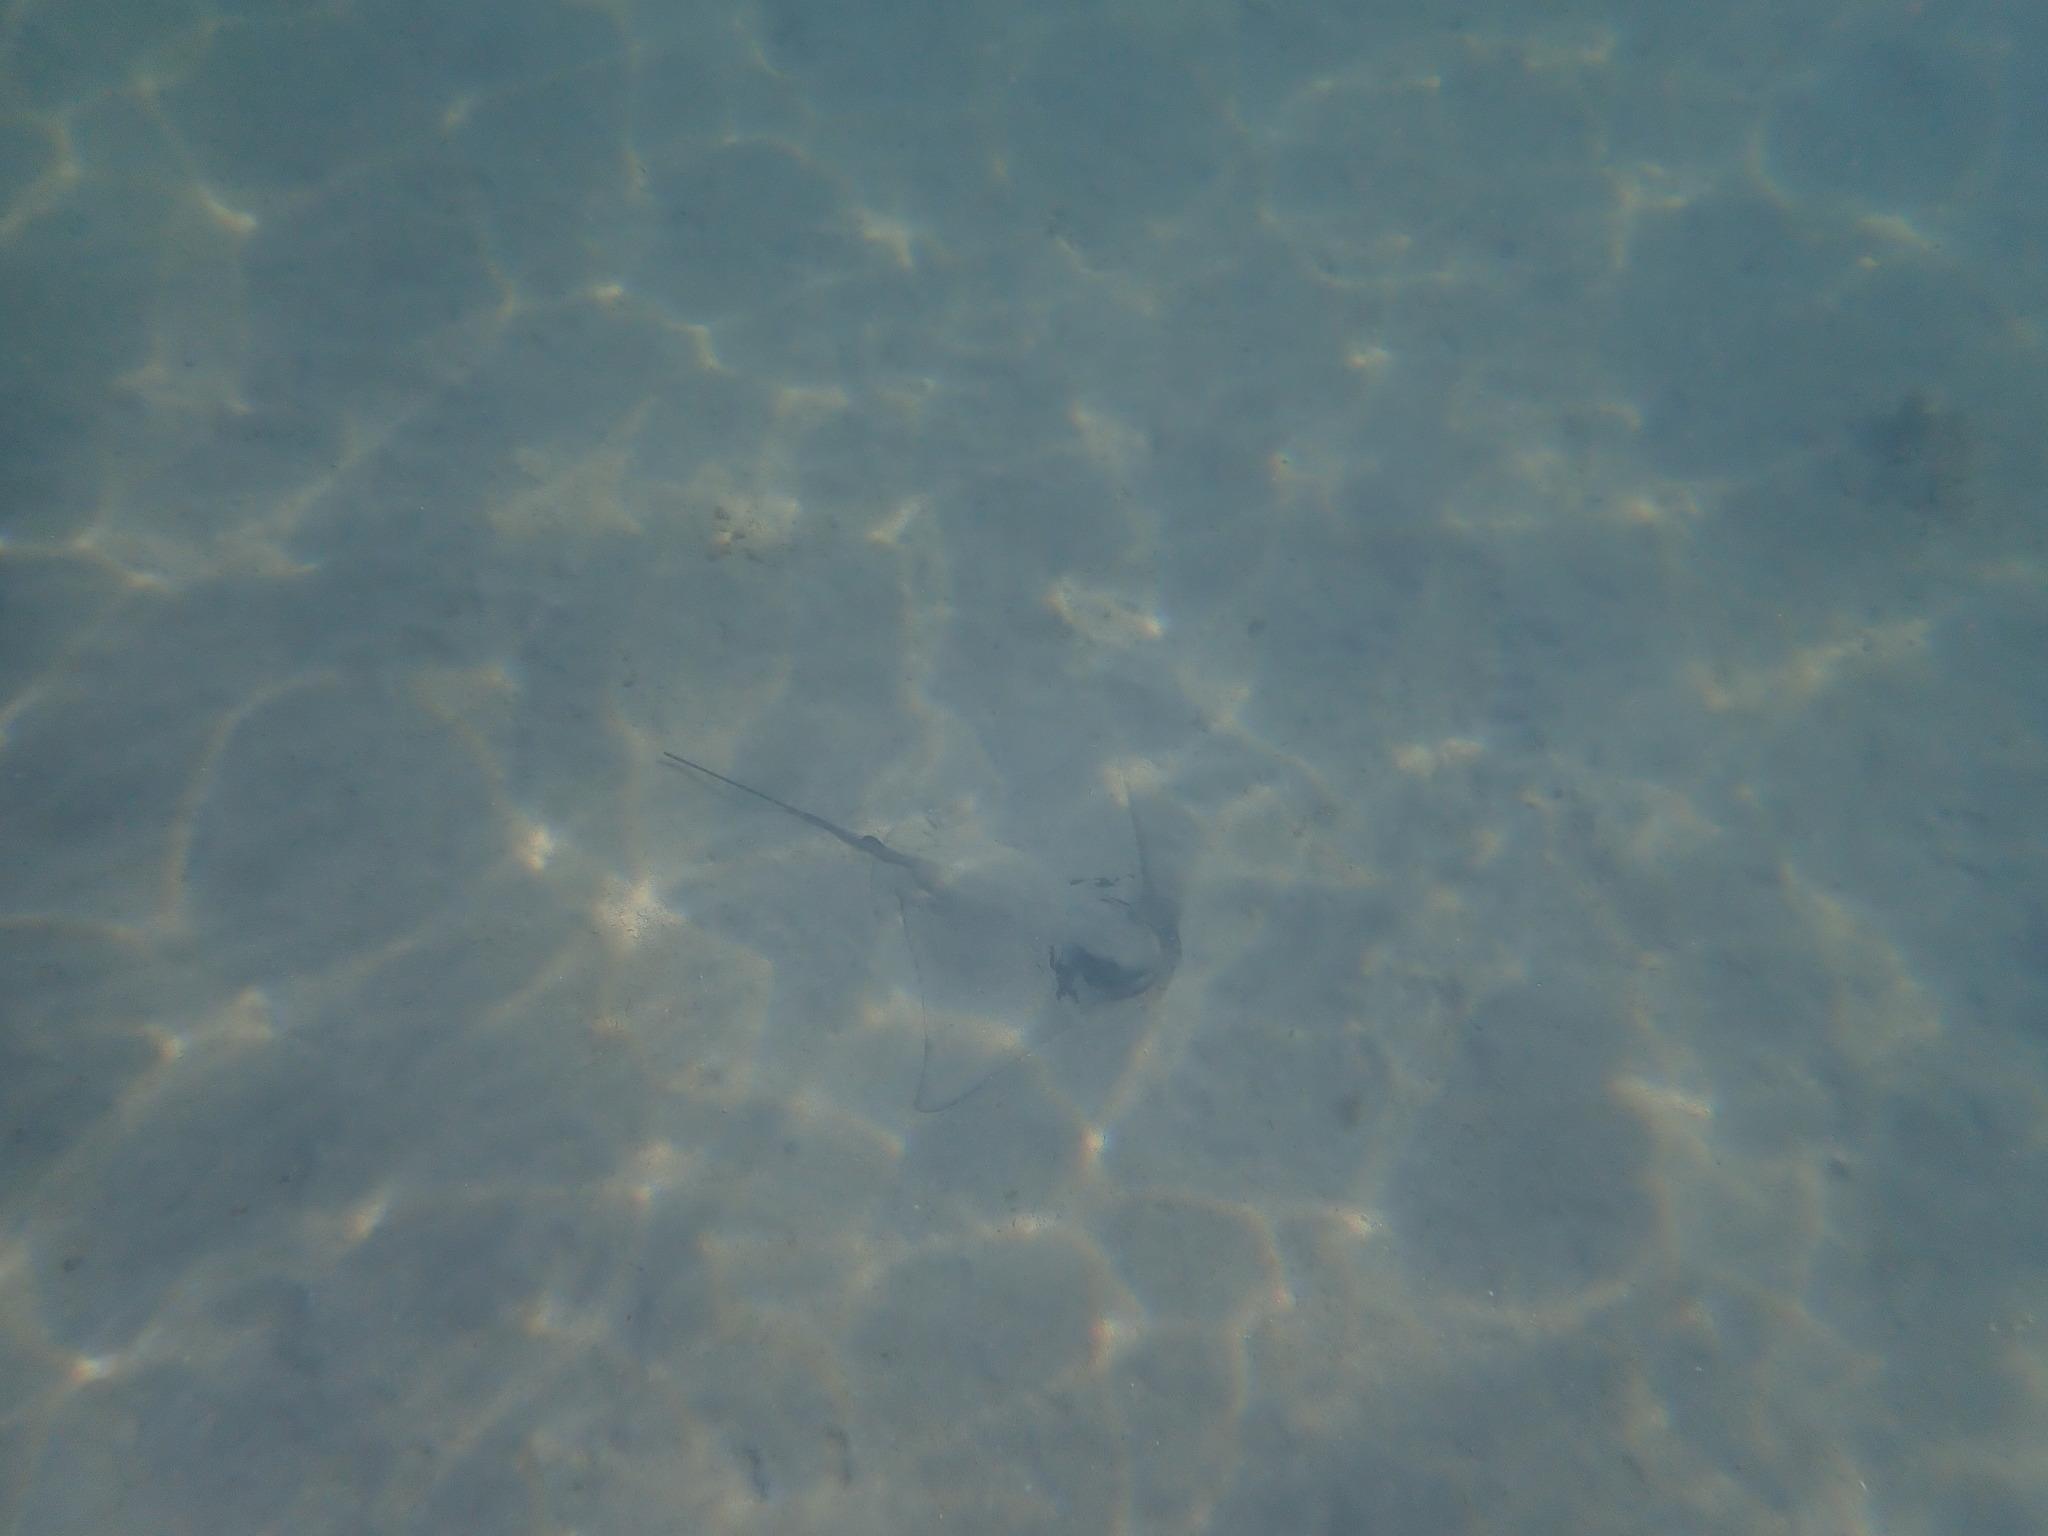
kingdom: Animalia
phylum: Chordata
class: Elasmobranchii
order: Myliobatiformes
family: Myliobatidae
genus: Myliobatis
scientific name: Myliobatis tenuicaudatus
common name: Eagle ray
